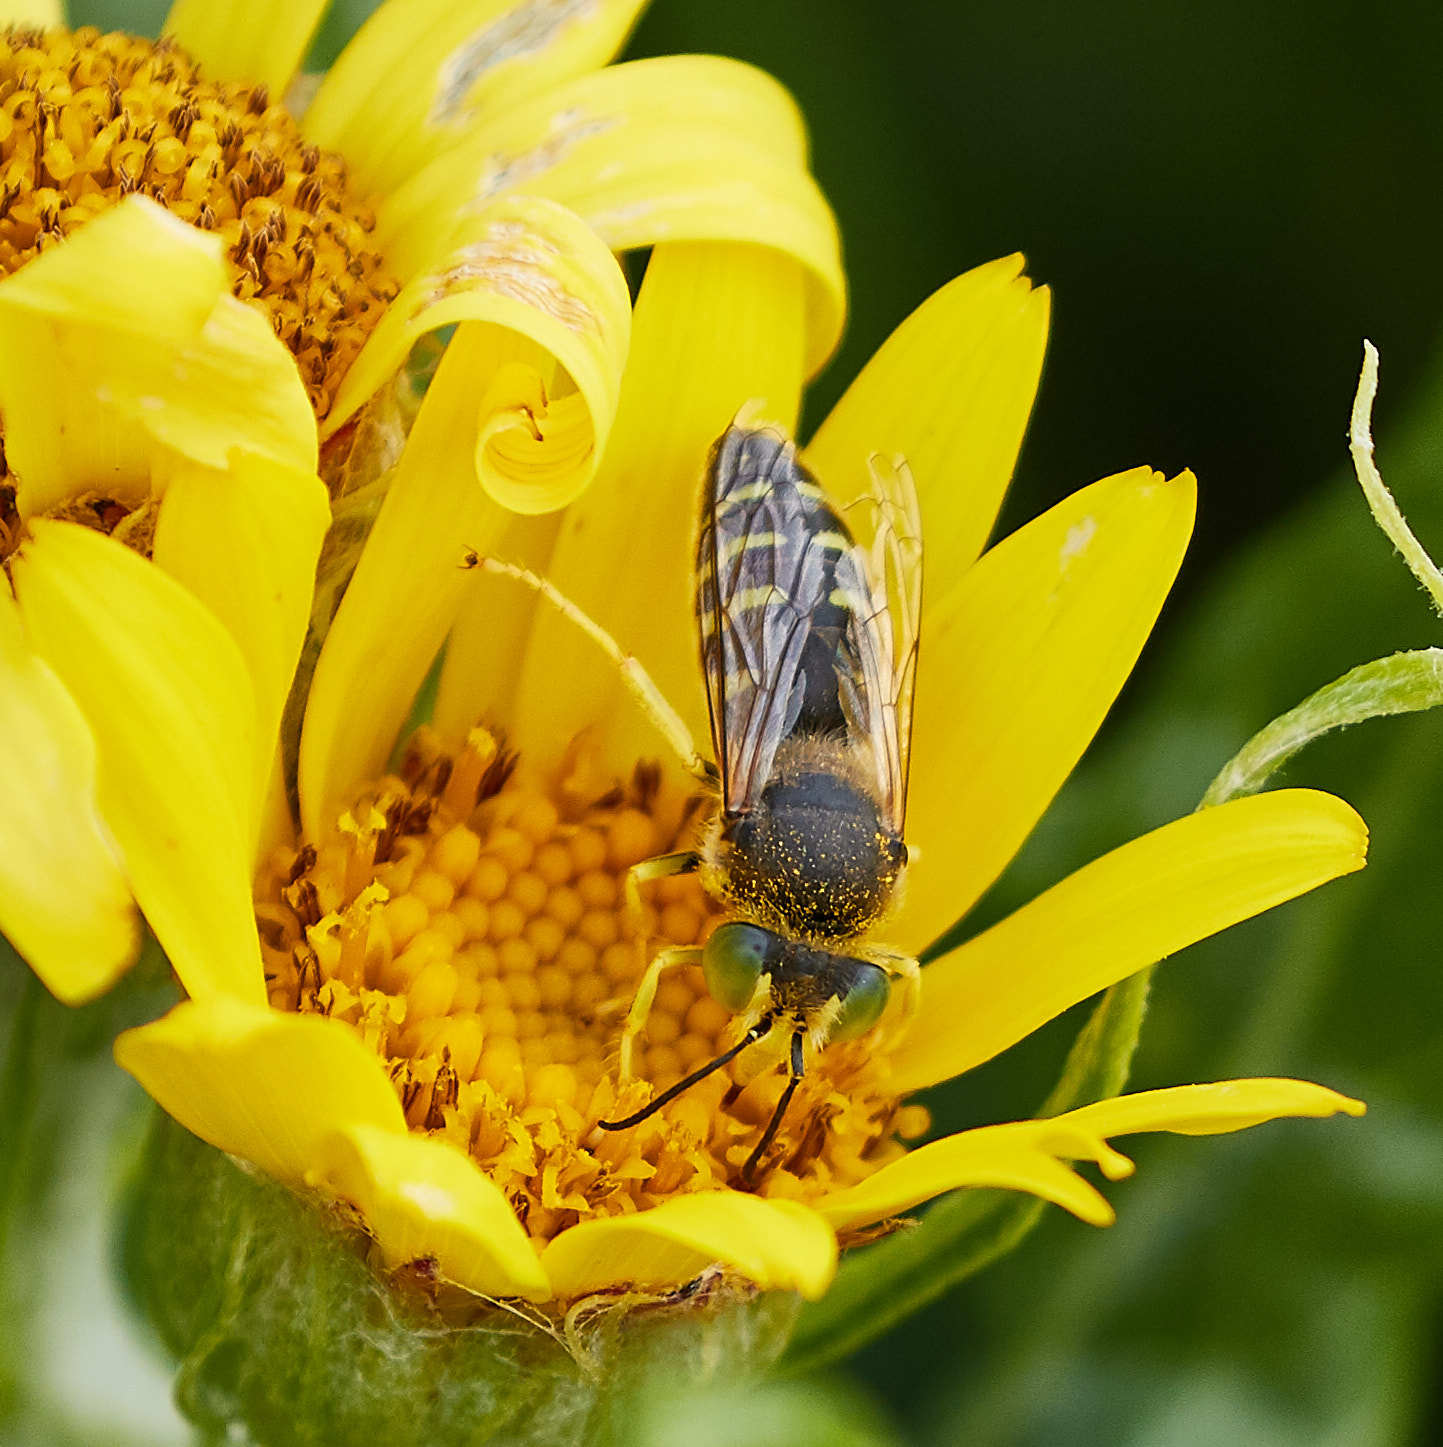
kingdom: Animalia
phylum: Arthropoda
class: Insecta
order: Hymenoptera
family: Crabronidae
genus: Bembix
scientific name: Bembix americana
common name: American sand wasp
